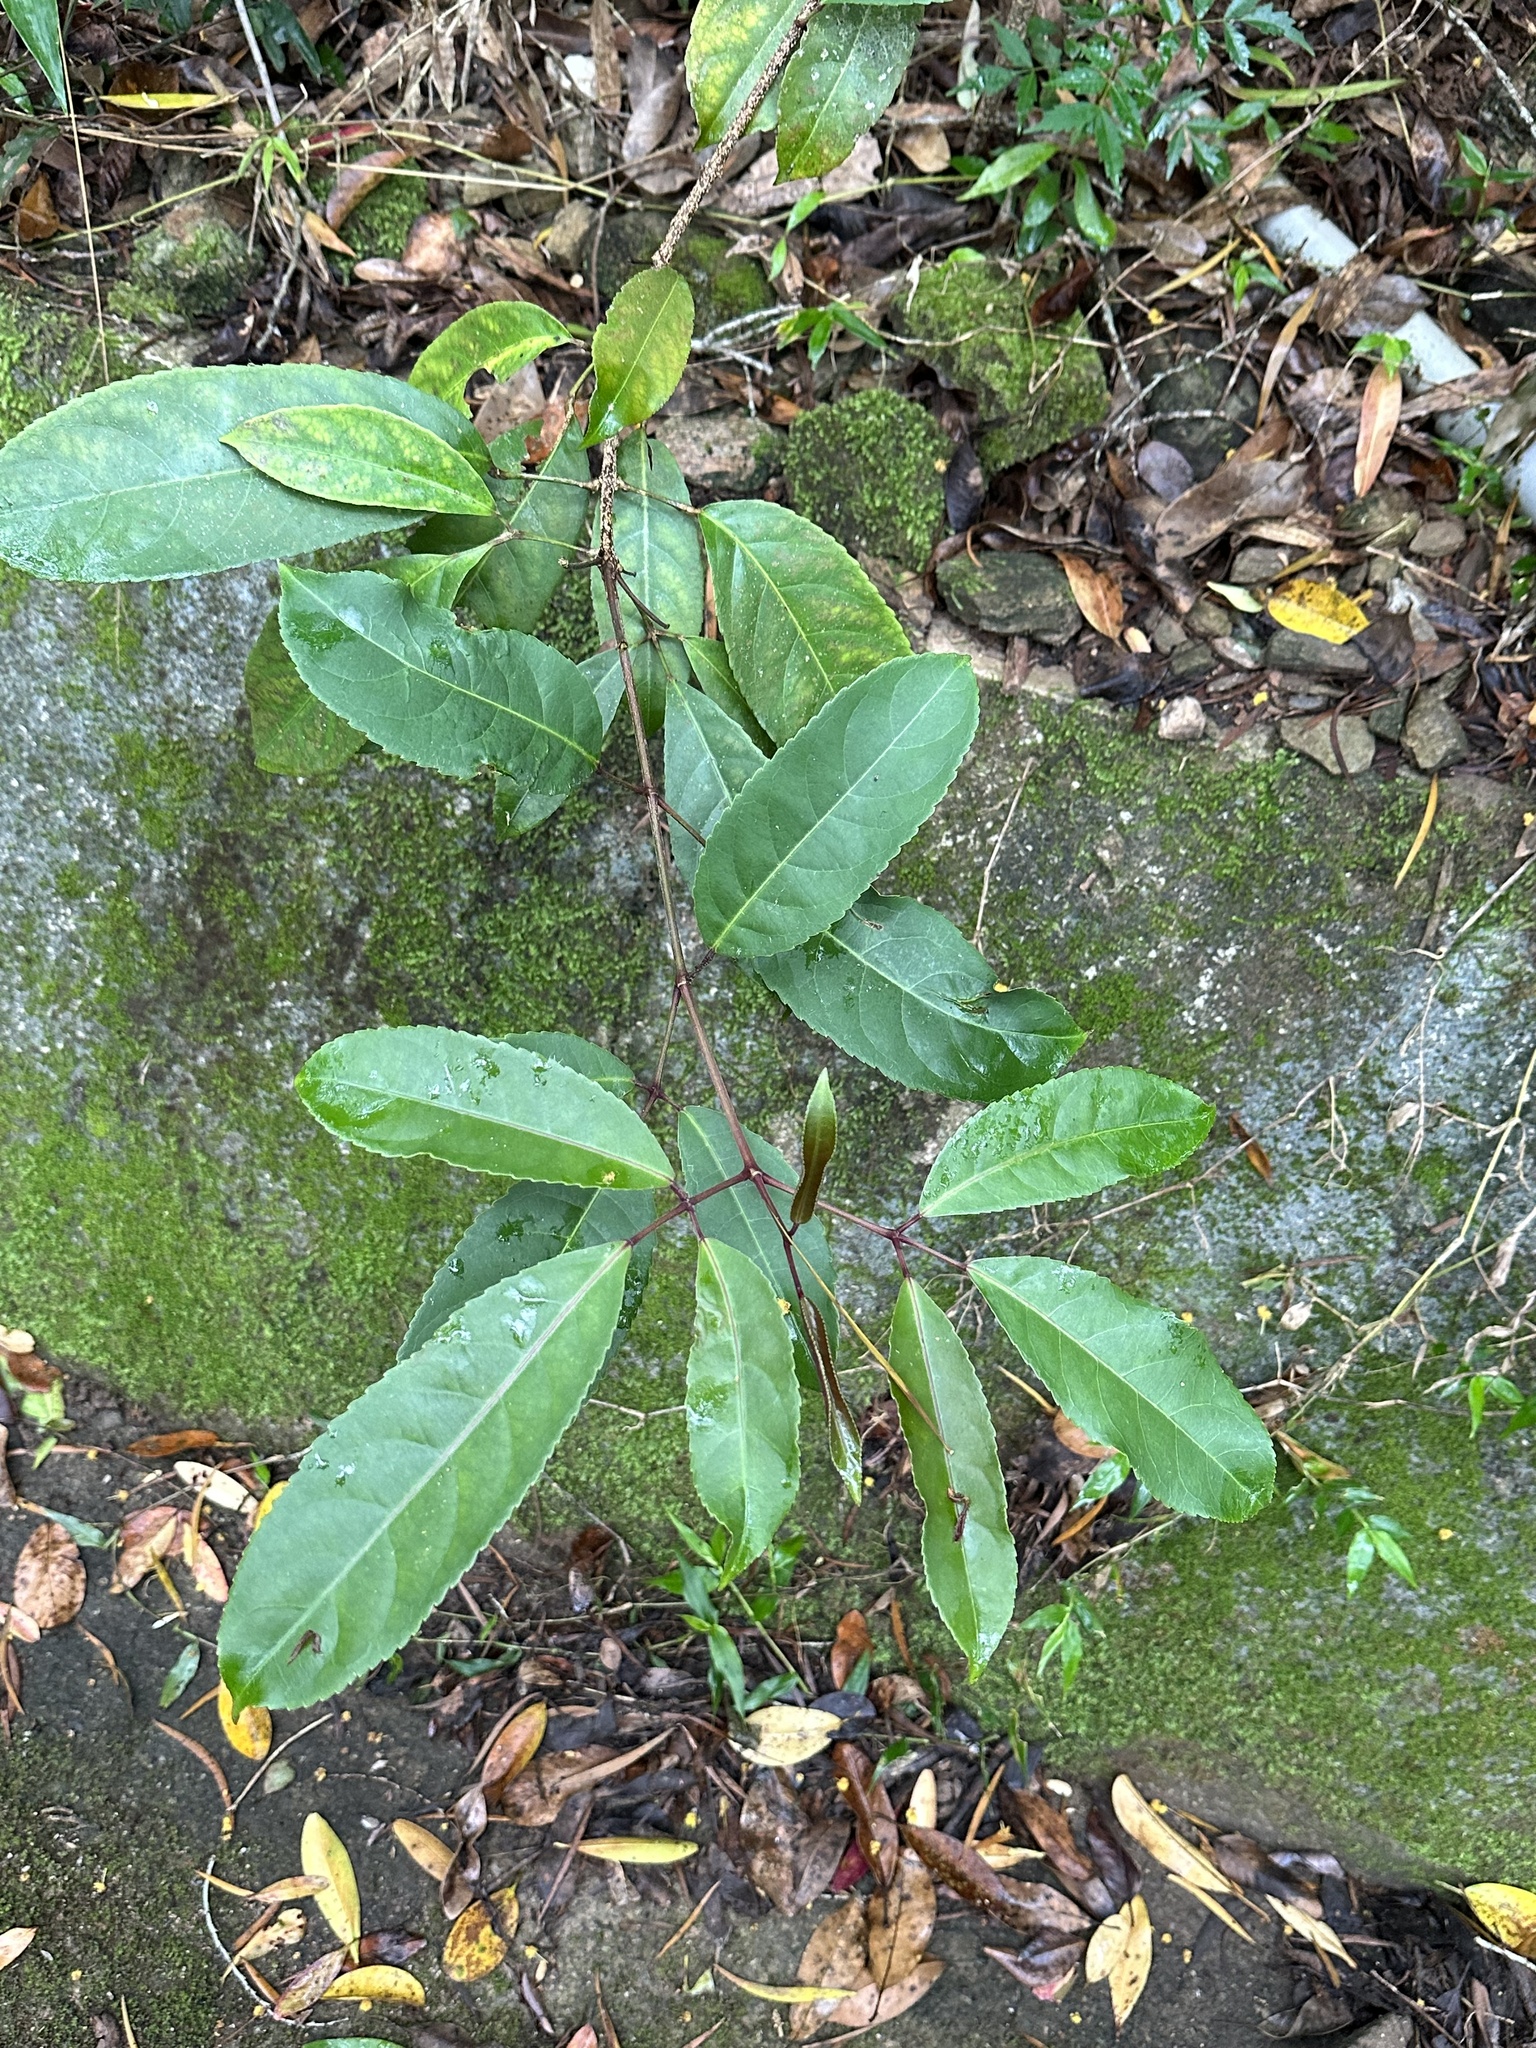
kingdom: Plantae
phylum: Tracheophyta
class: Magnoliopsida
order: Crossosomatales
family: Staphyleaceae
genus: Turpinia
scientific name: Turpinia ternata
